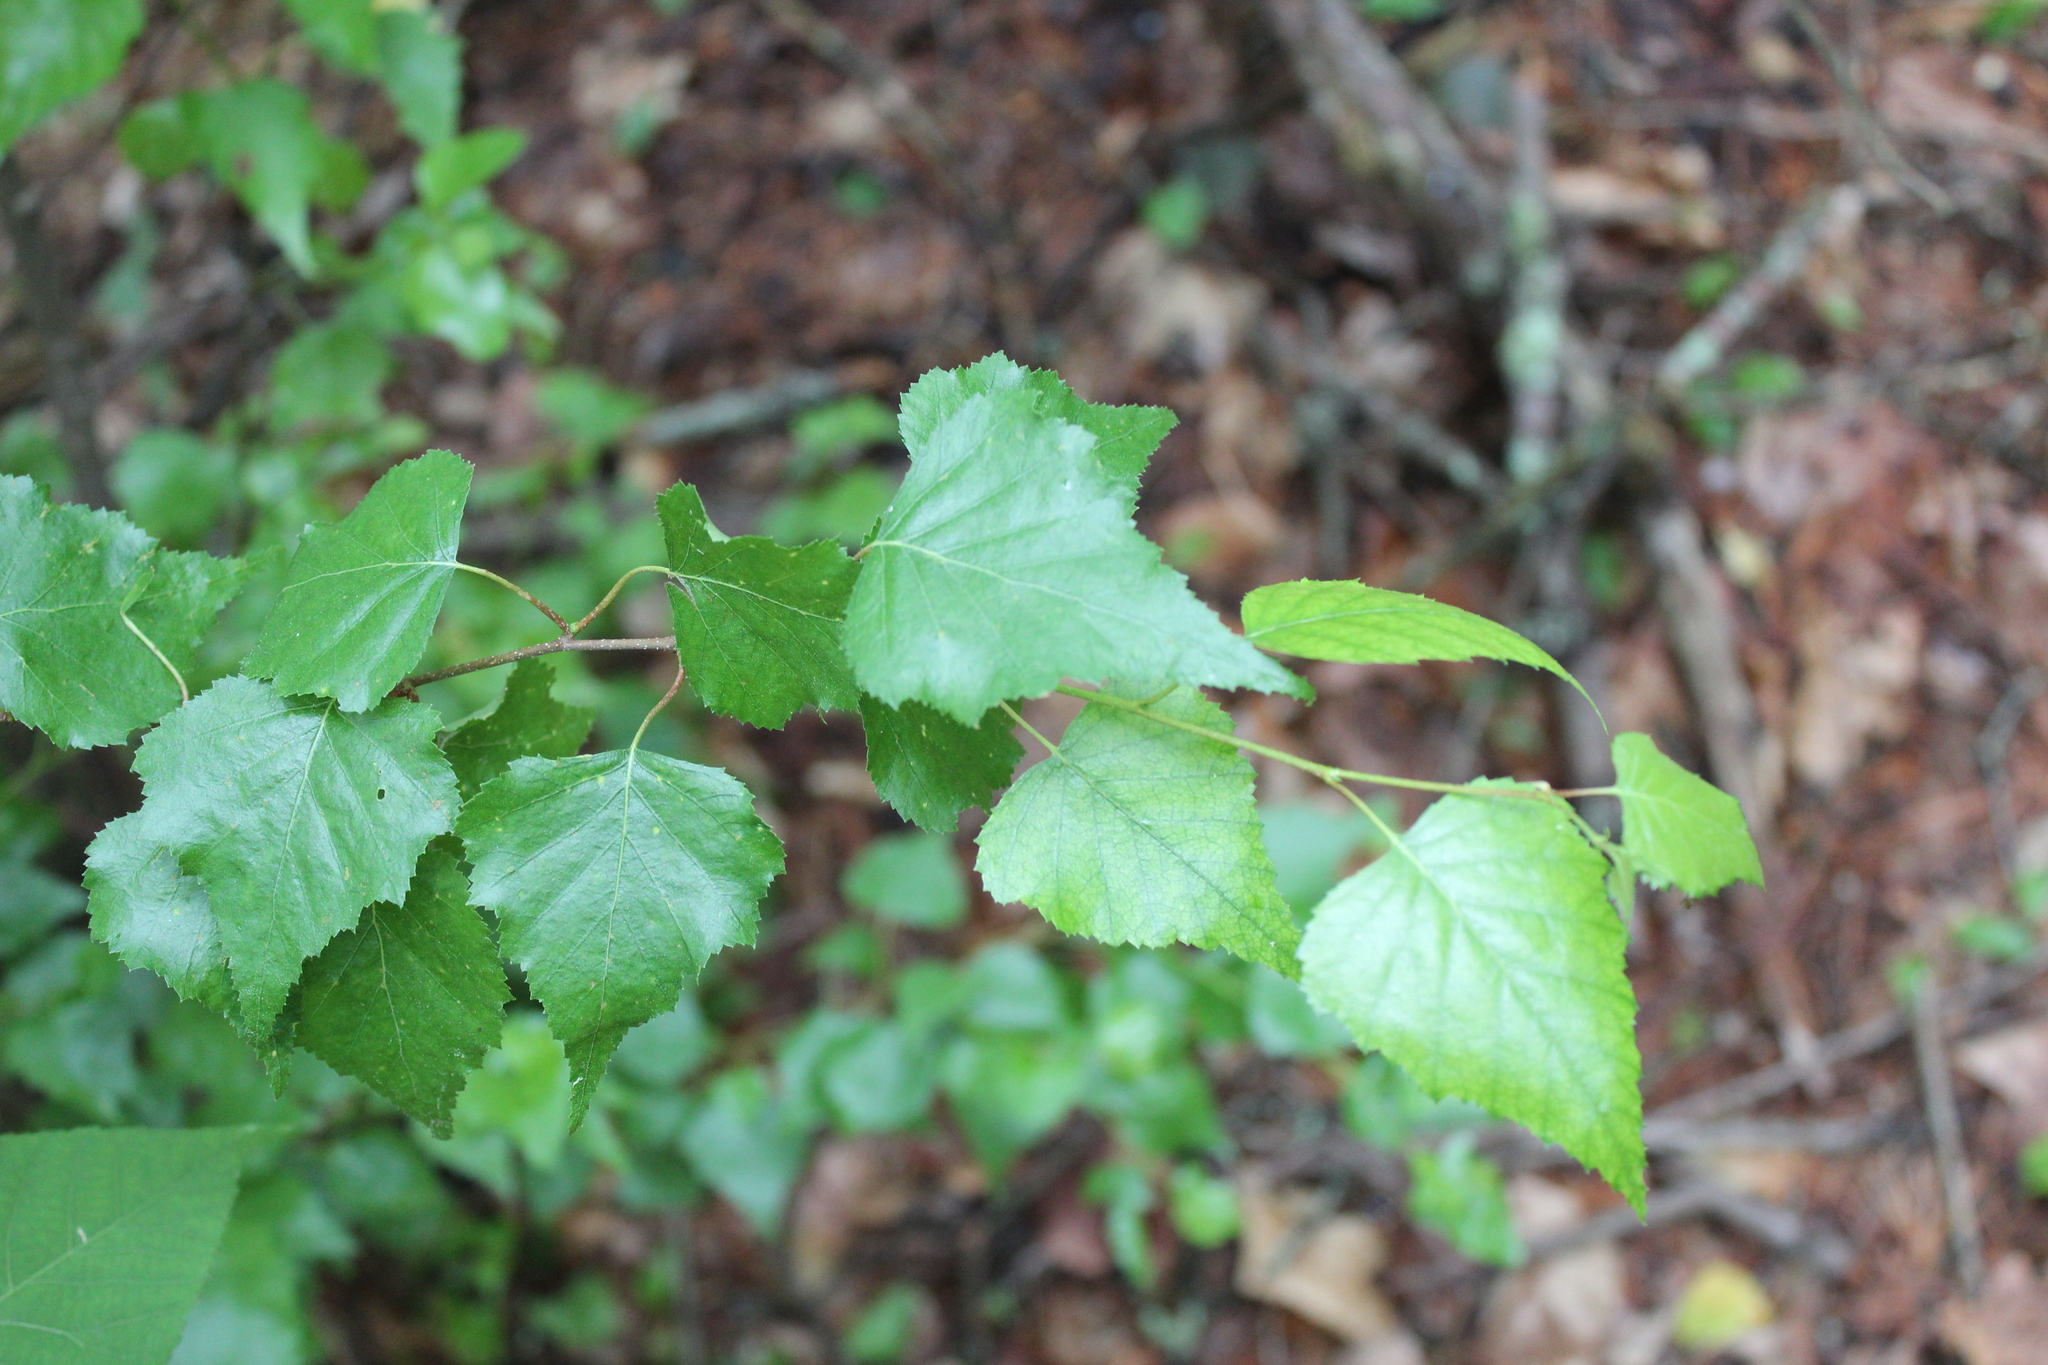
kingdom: Plantae
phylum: Tracheophyta
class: Magnoliopsida
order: Fagales
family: Betulaceae
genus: Betula
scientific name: Betula populifolia
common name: Fire birch
